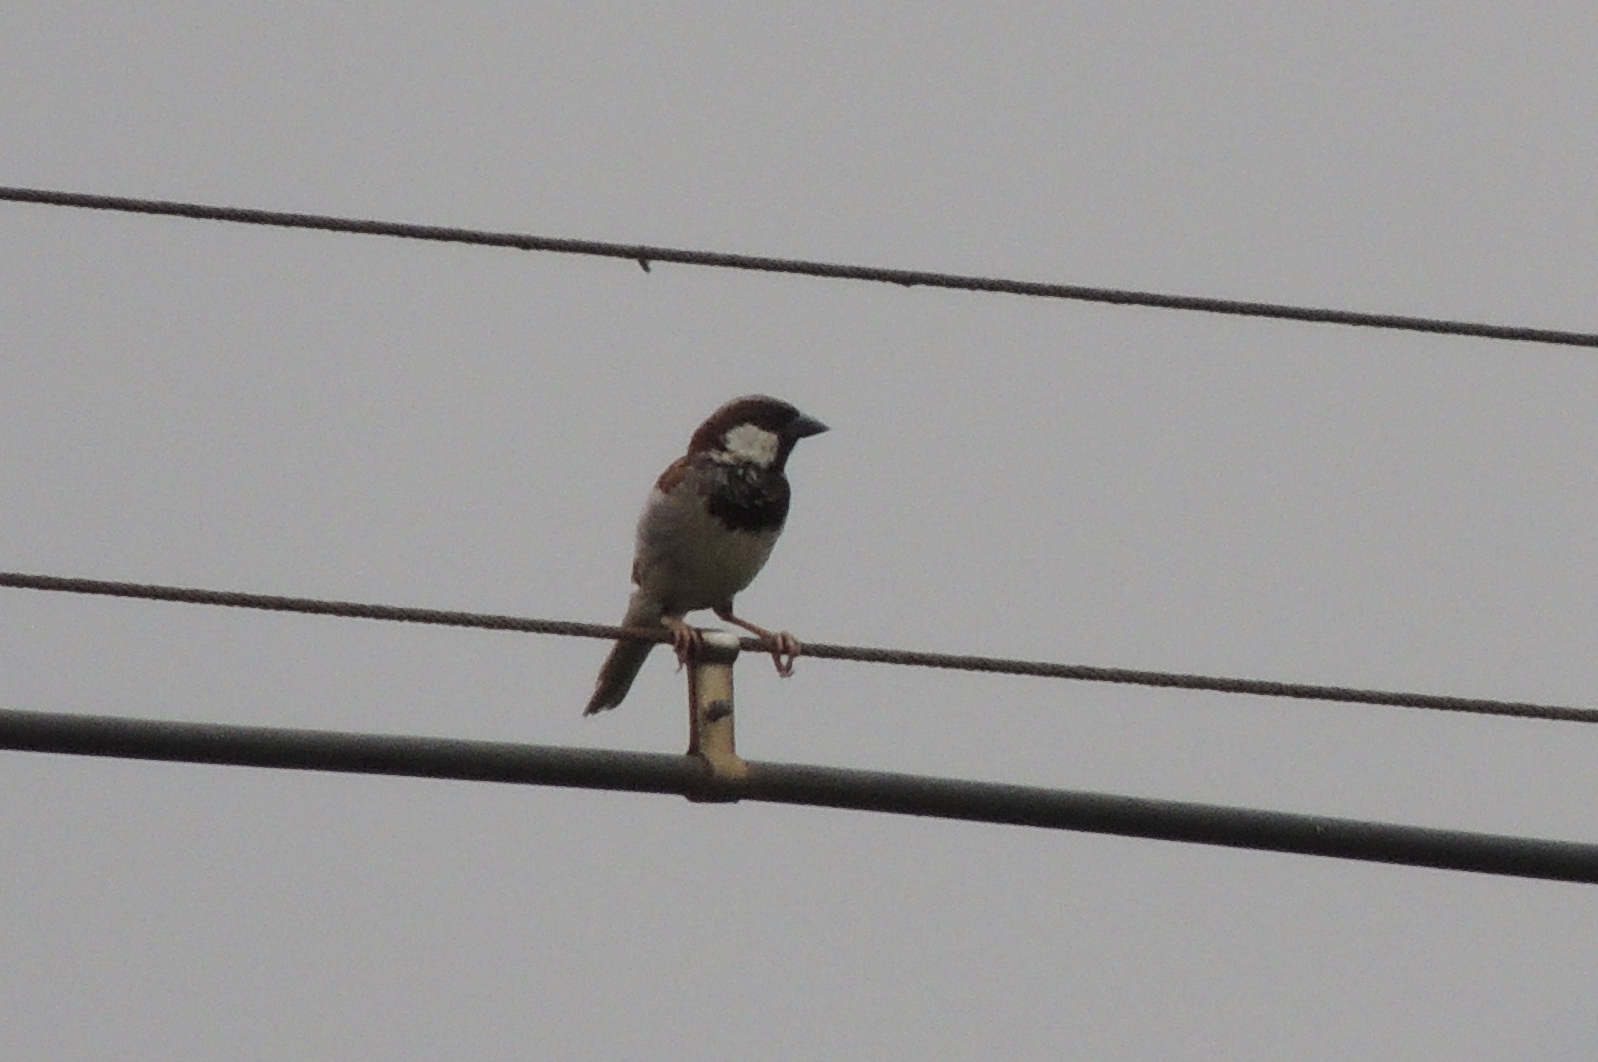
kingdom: Animalia
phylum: Chordata
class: Aves
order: Passeriformes
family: Passeridae
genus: Passer
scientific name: Passer domesticus
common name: House sparrow
